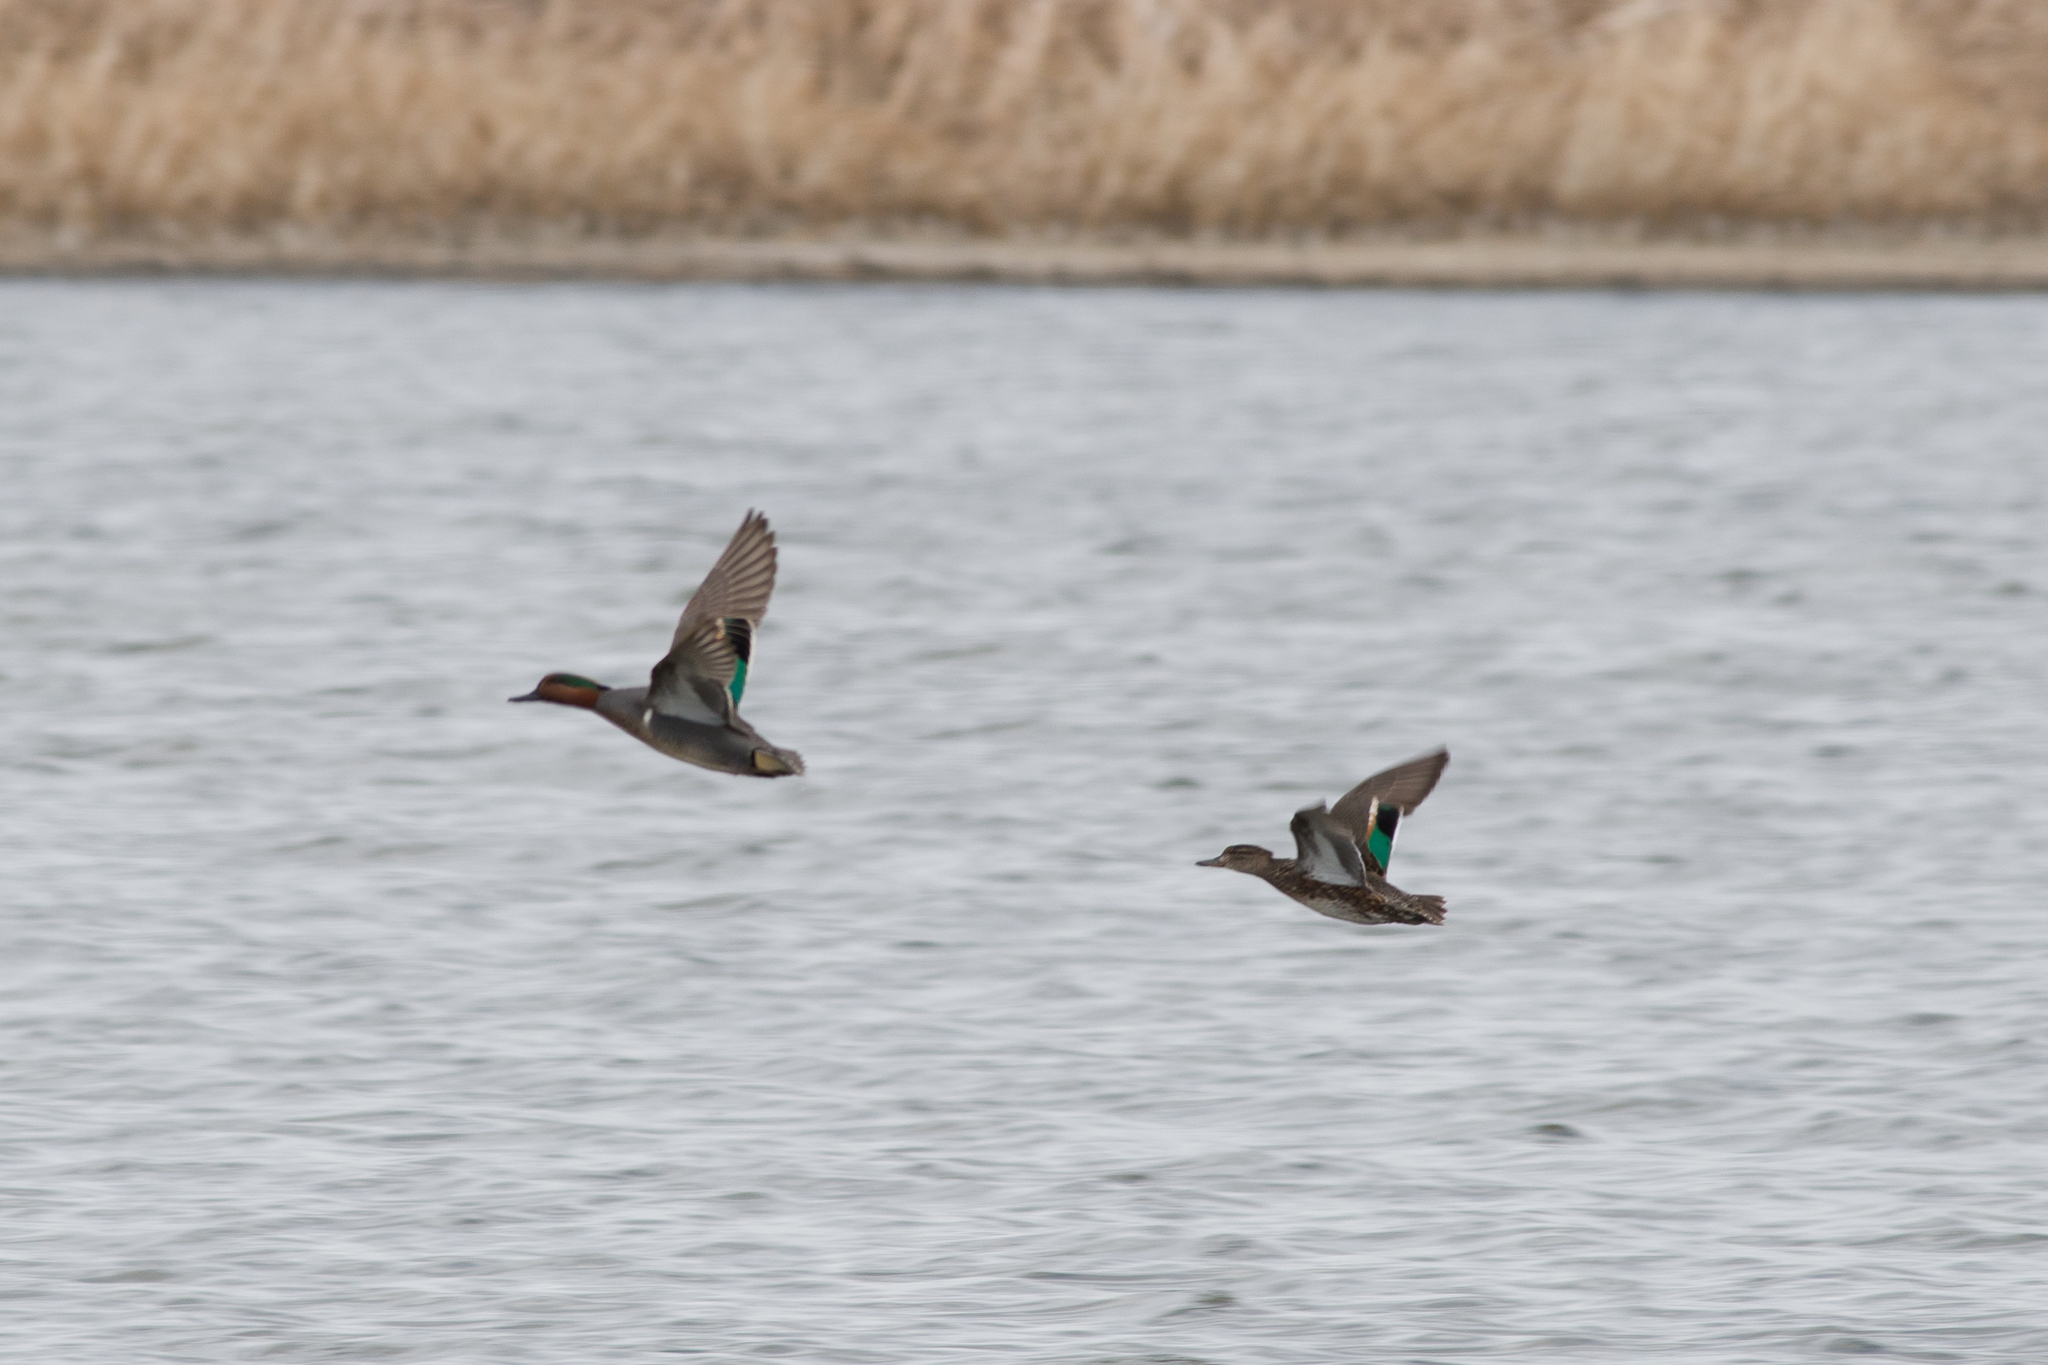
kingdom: Animalia
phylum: Chordata
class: Aves
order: Anseriformes
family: Anatidae
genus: Anas
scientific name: Anas crecca
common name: Eurasian teal
